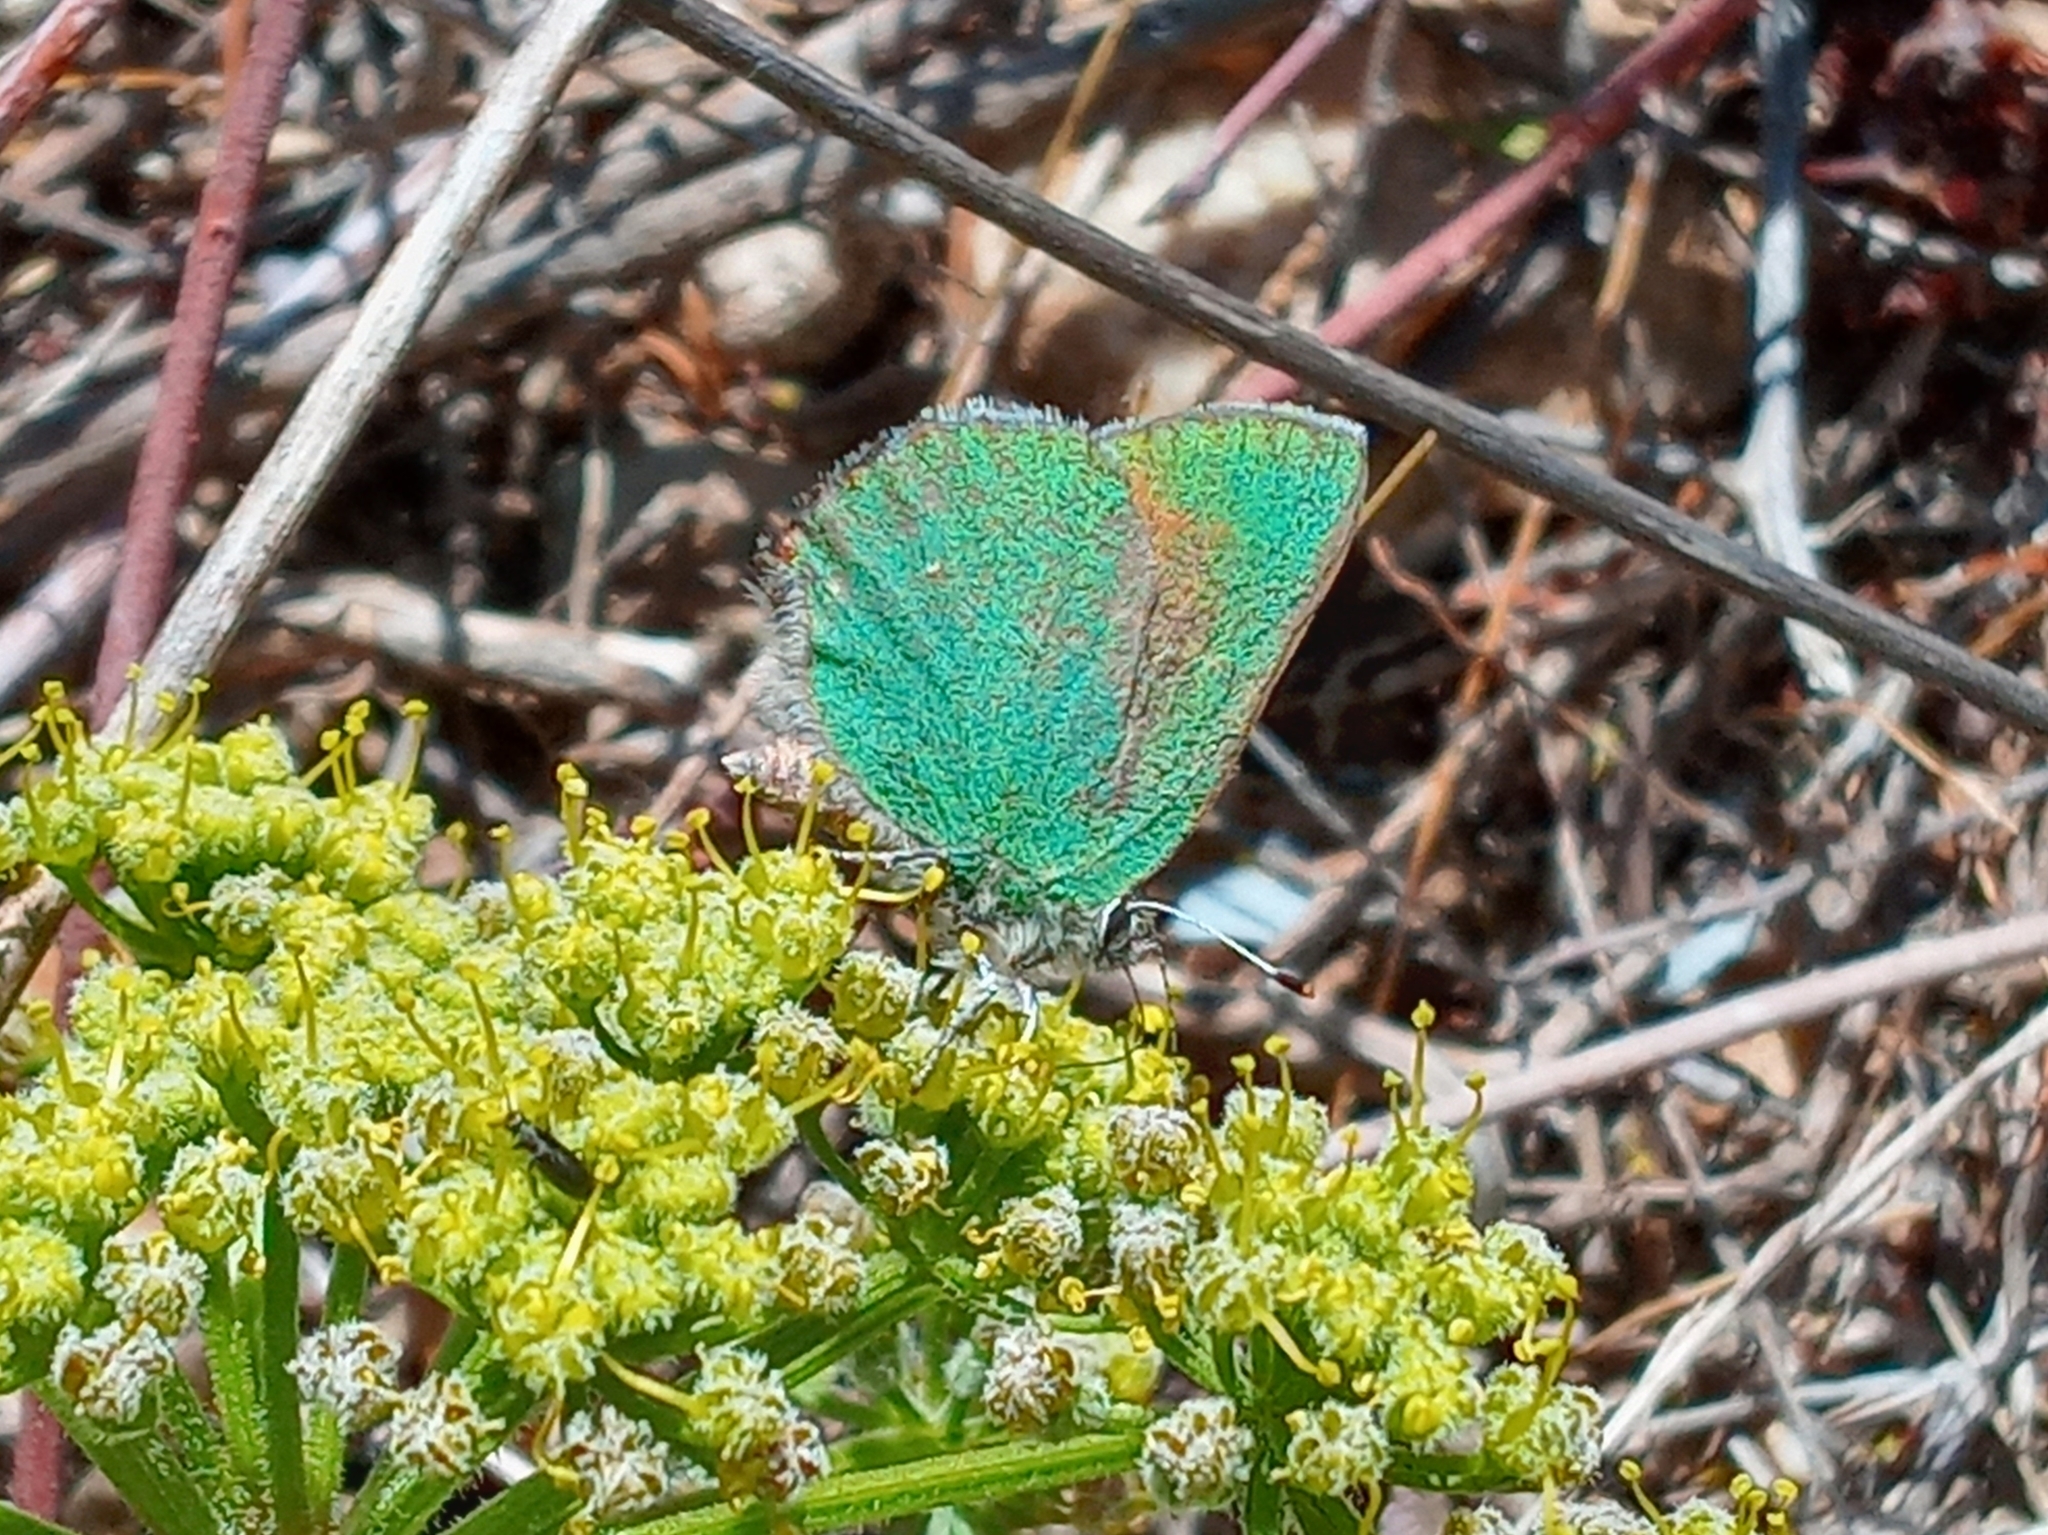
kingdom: Animalia
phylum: Arthropoda
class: Insecta
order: Lepidoptera
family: Lycaenidae
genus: Callophrys
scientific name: Callophrys dumetorum
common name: Bramble hairstreak
